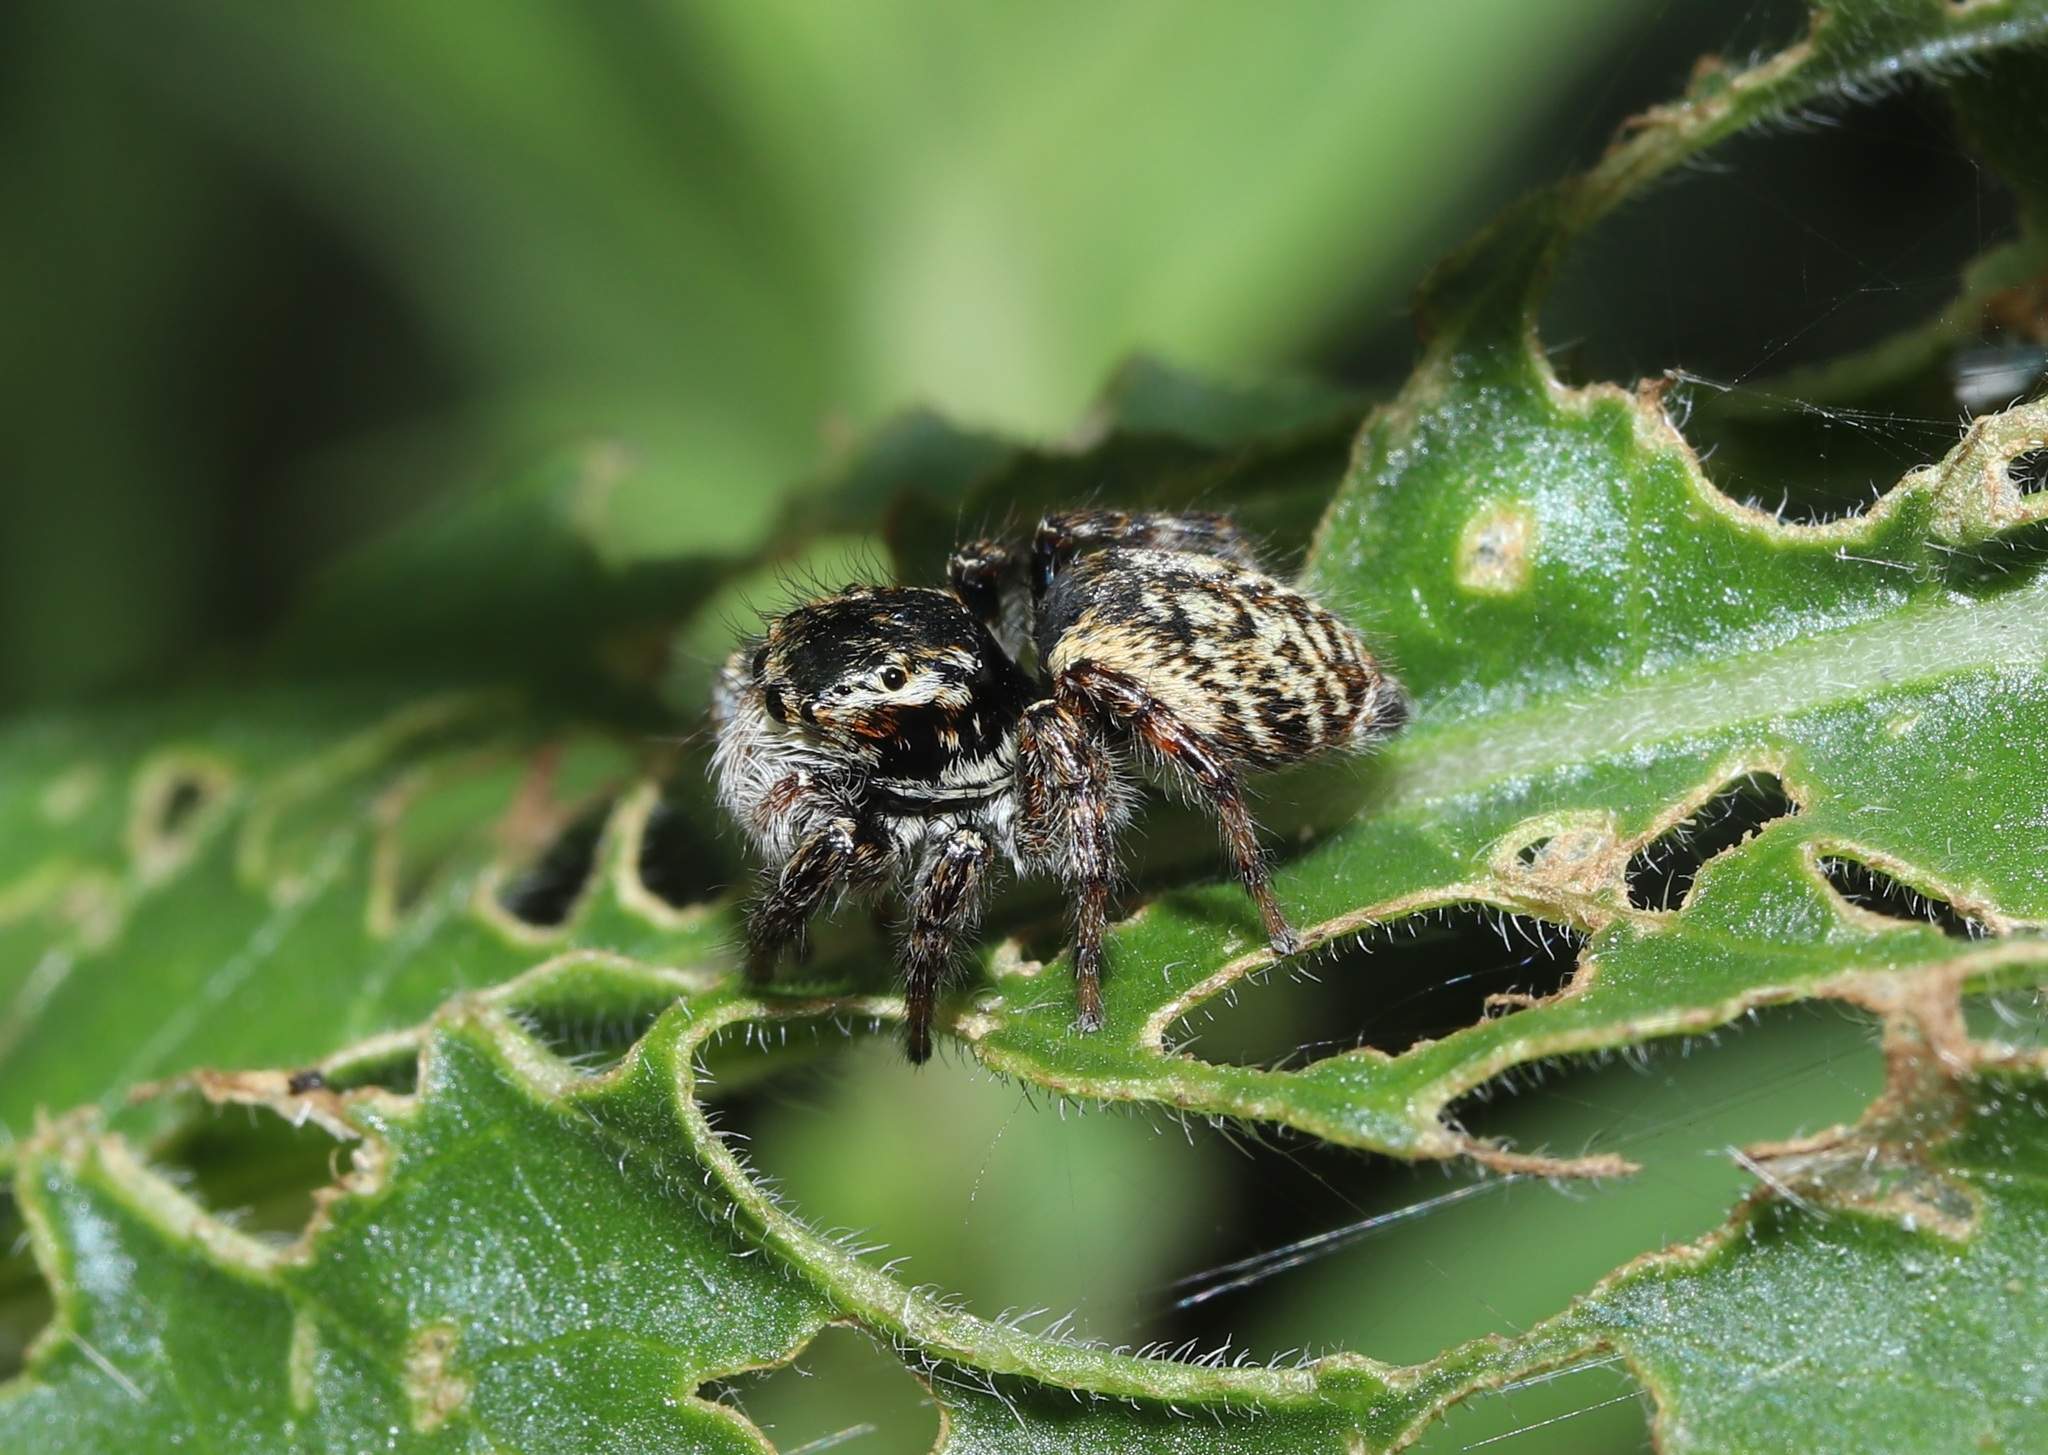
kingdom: Animalia
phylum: Arthropoda
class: Arachnida
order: Araneae
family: Salticidae
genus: Carrhotus
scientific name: Carrhotus xanthogramma
